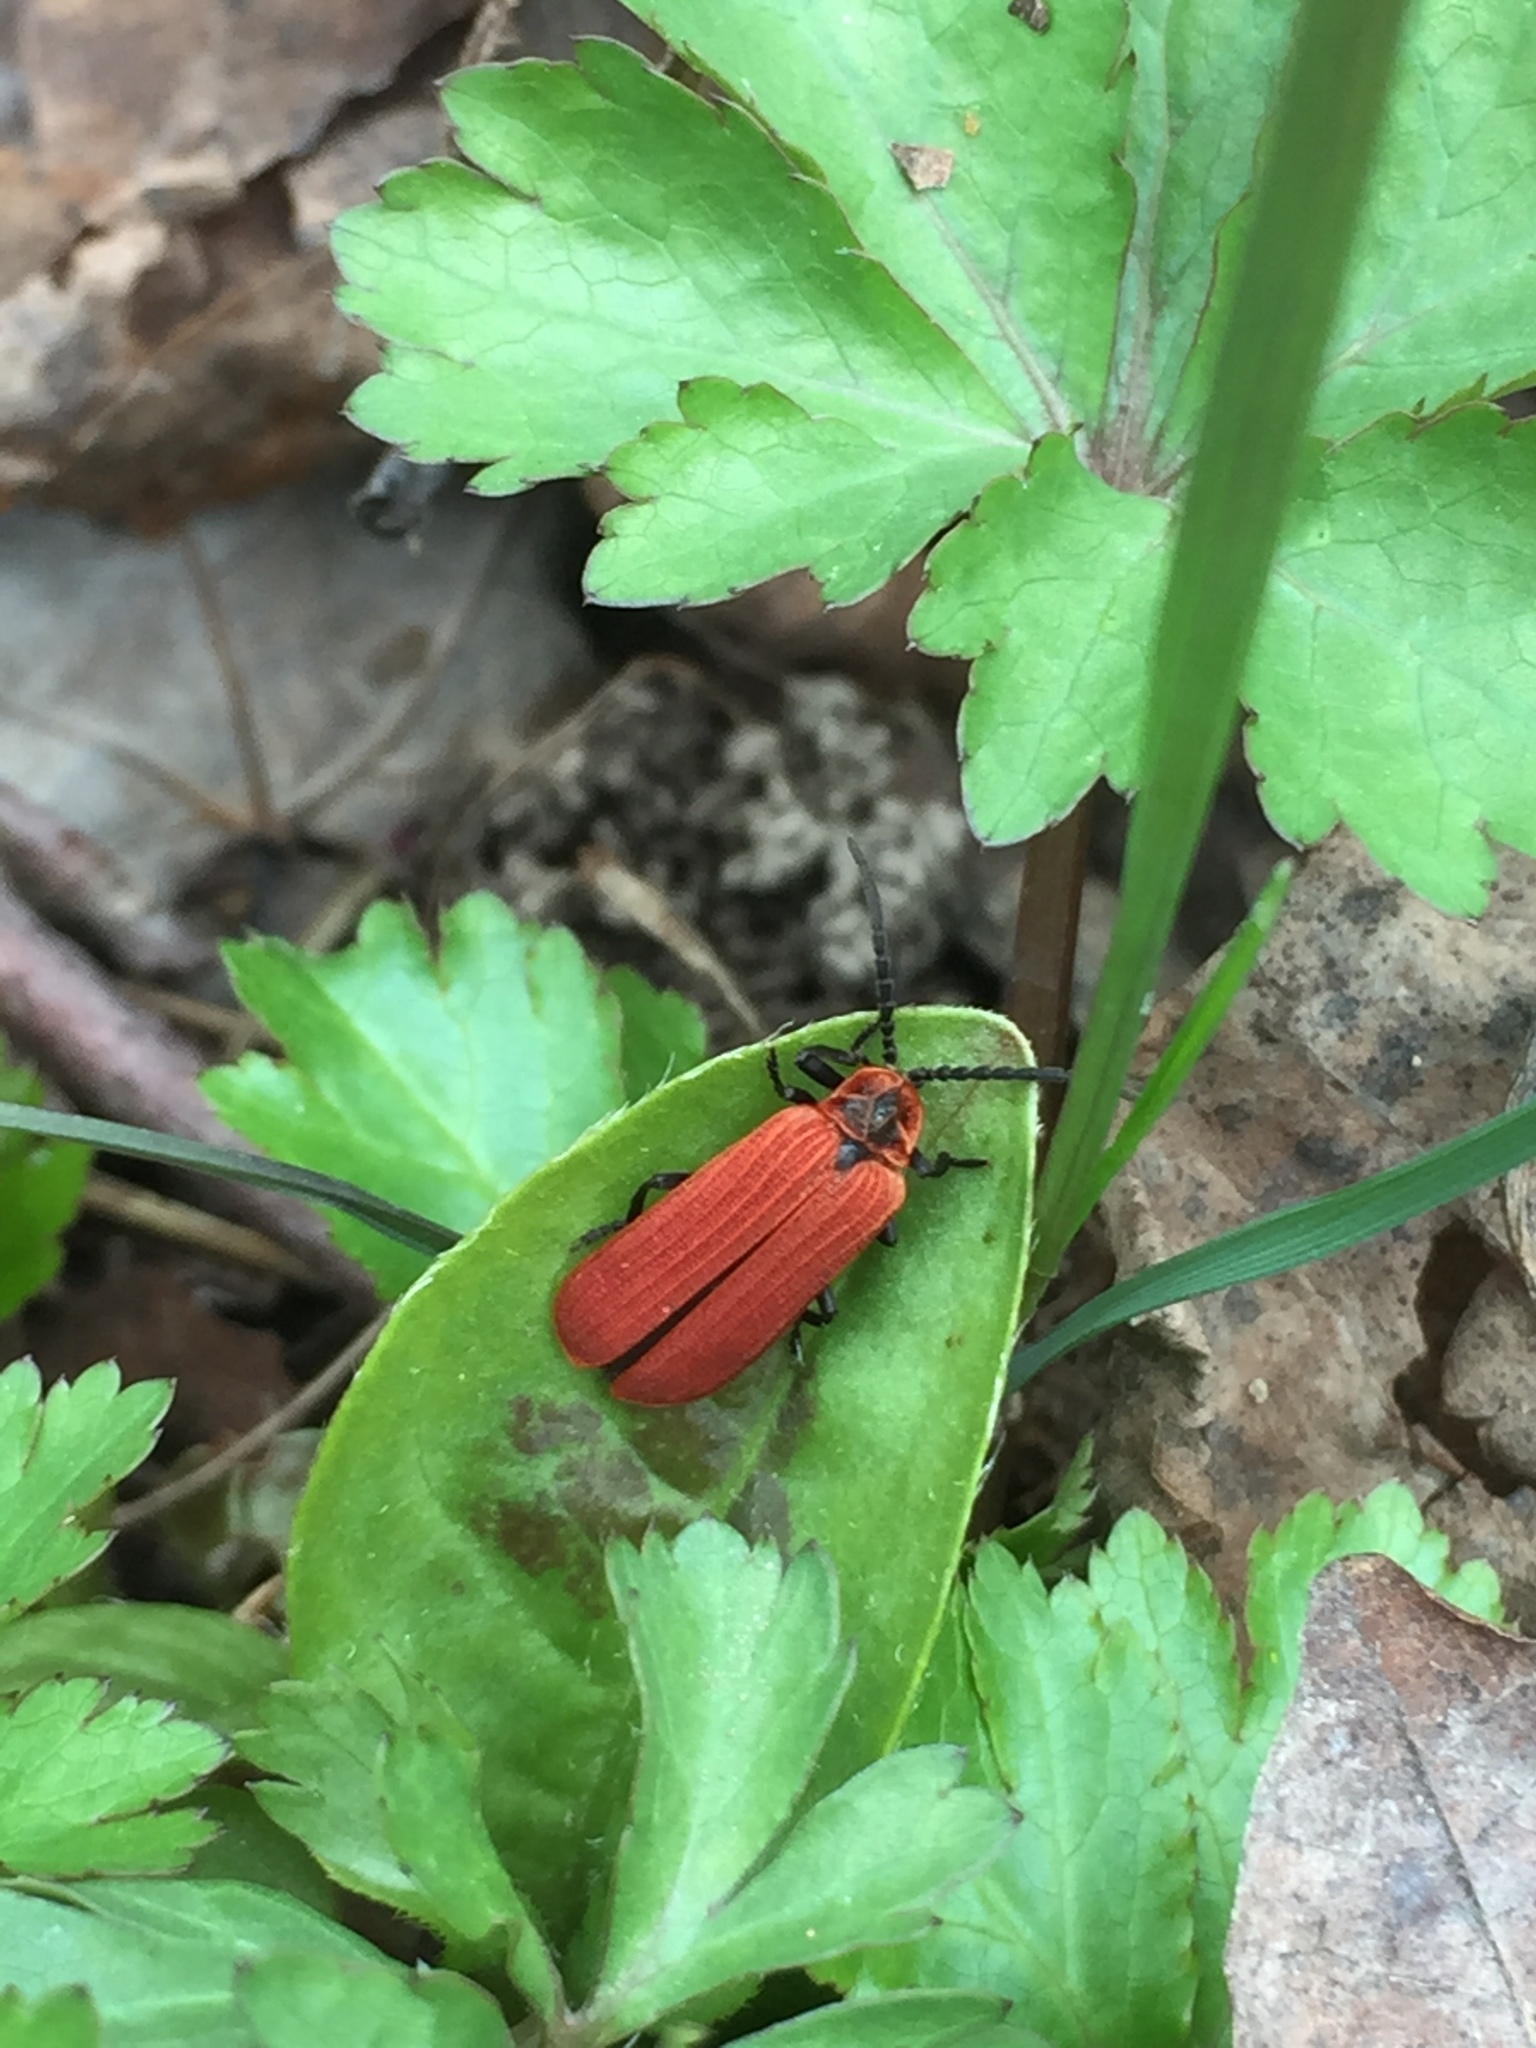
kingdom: Animalia
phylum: Arthropoda
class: Insecta
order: Coleoptera
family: Lycidae
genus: Dictyoptera
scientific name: Dictyoptera aurora
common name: Golden net-winged beetle
